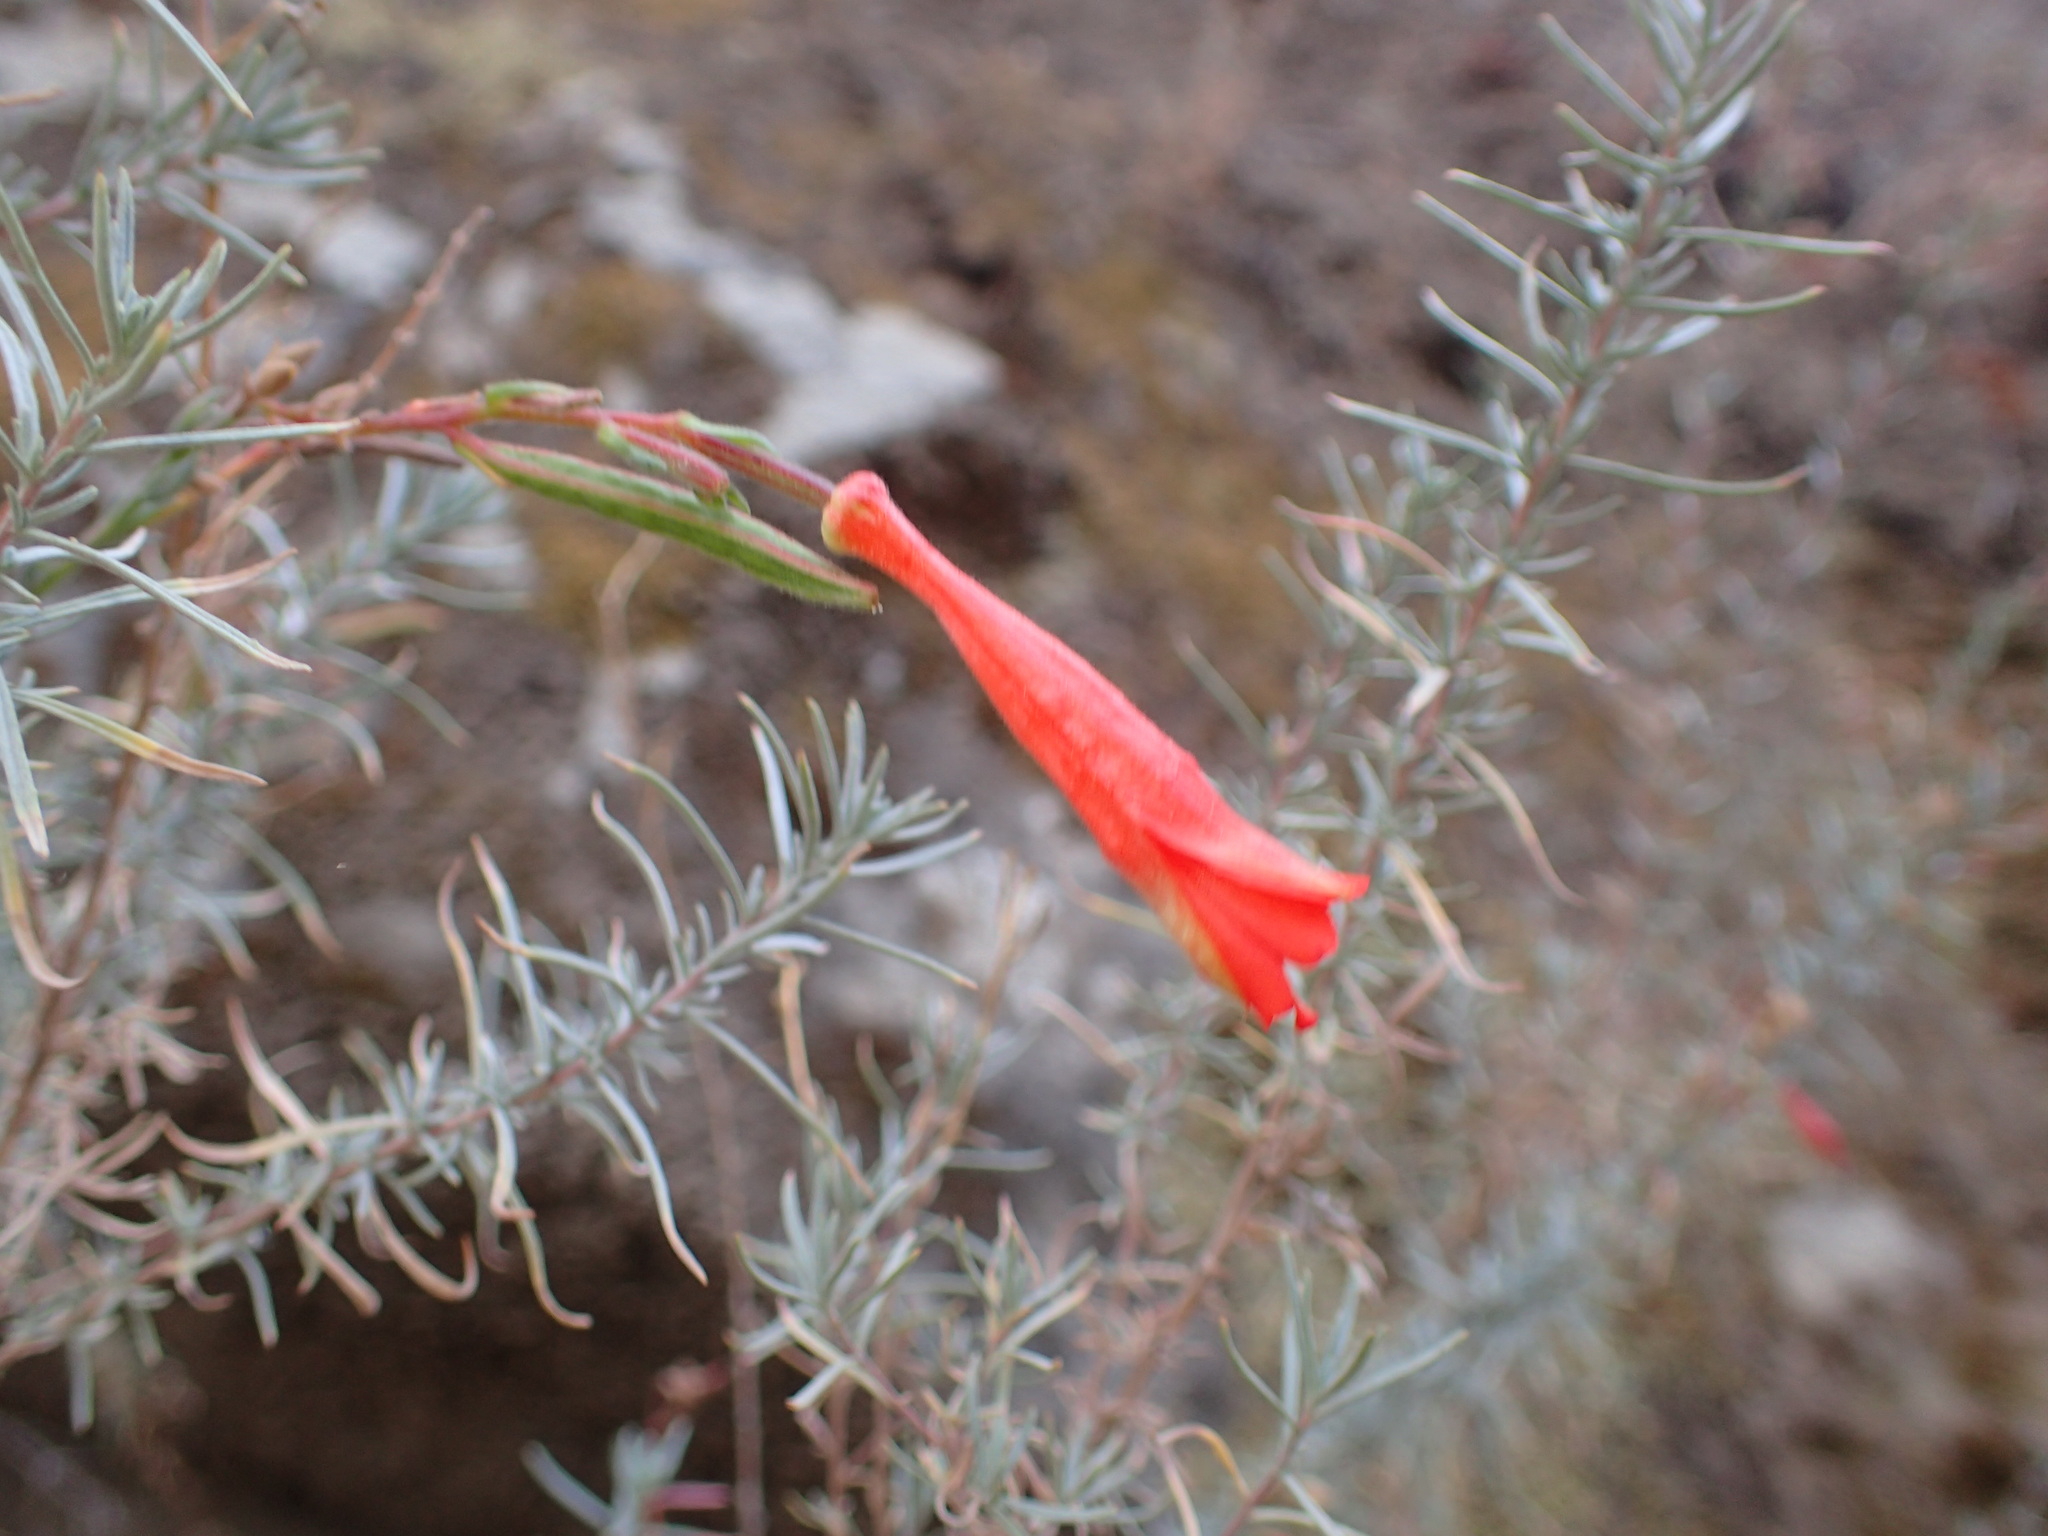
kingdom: Plantae
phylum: Tracheophyta
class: Magnoliopsida
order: Myrtales
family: Onagraceae
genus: Epilobium
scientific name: Epilobium canum
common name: California-fuchsia
